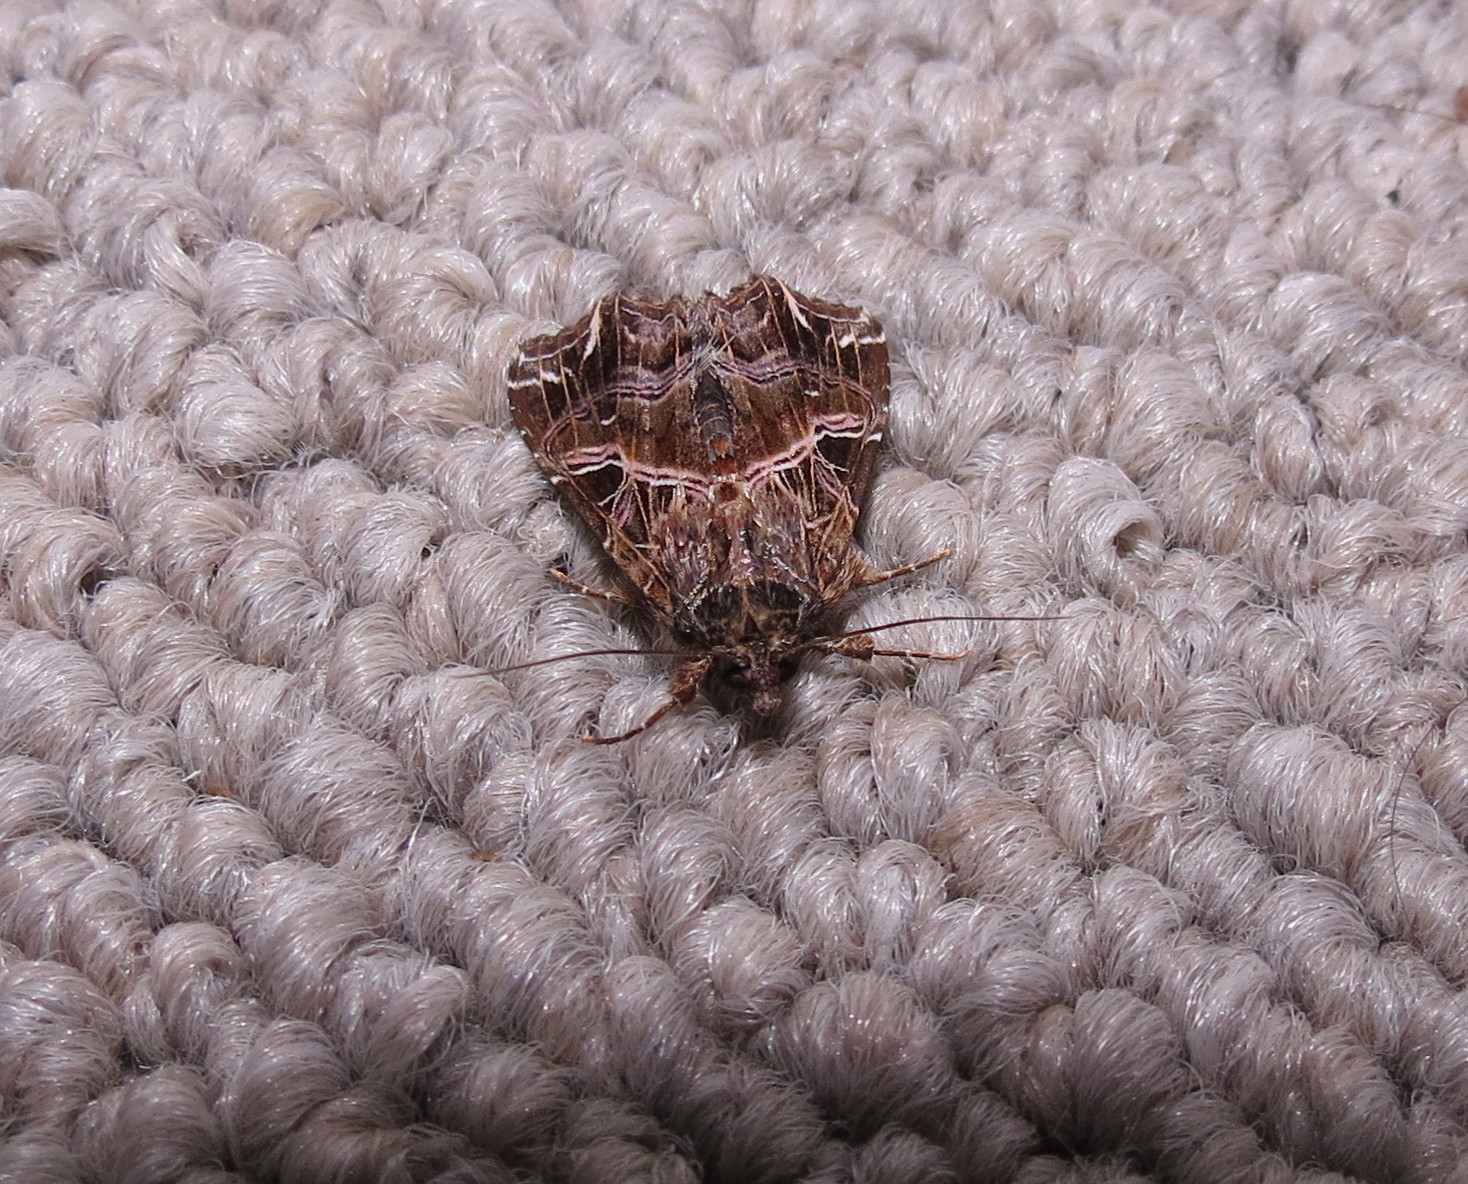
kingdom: Animalia
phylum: Arthropoda
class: Insecta
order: Lepidoptera
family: Noctuidae
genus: Callopistria
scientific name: Callopistria maillardi
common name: Cutworm
